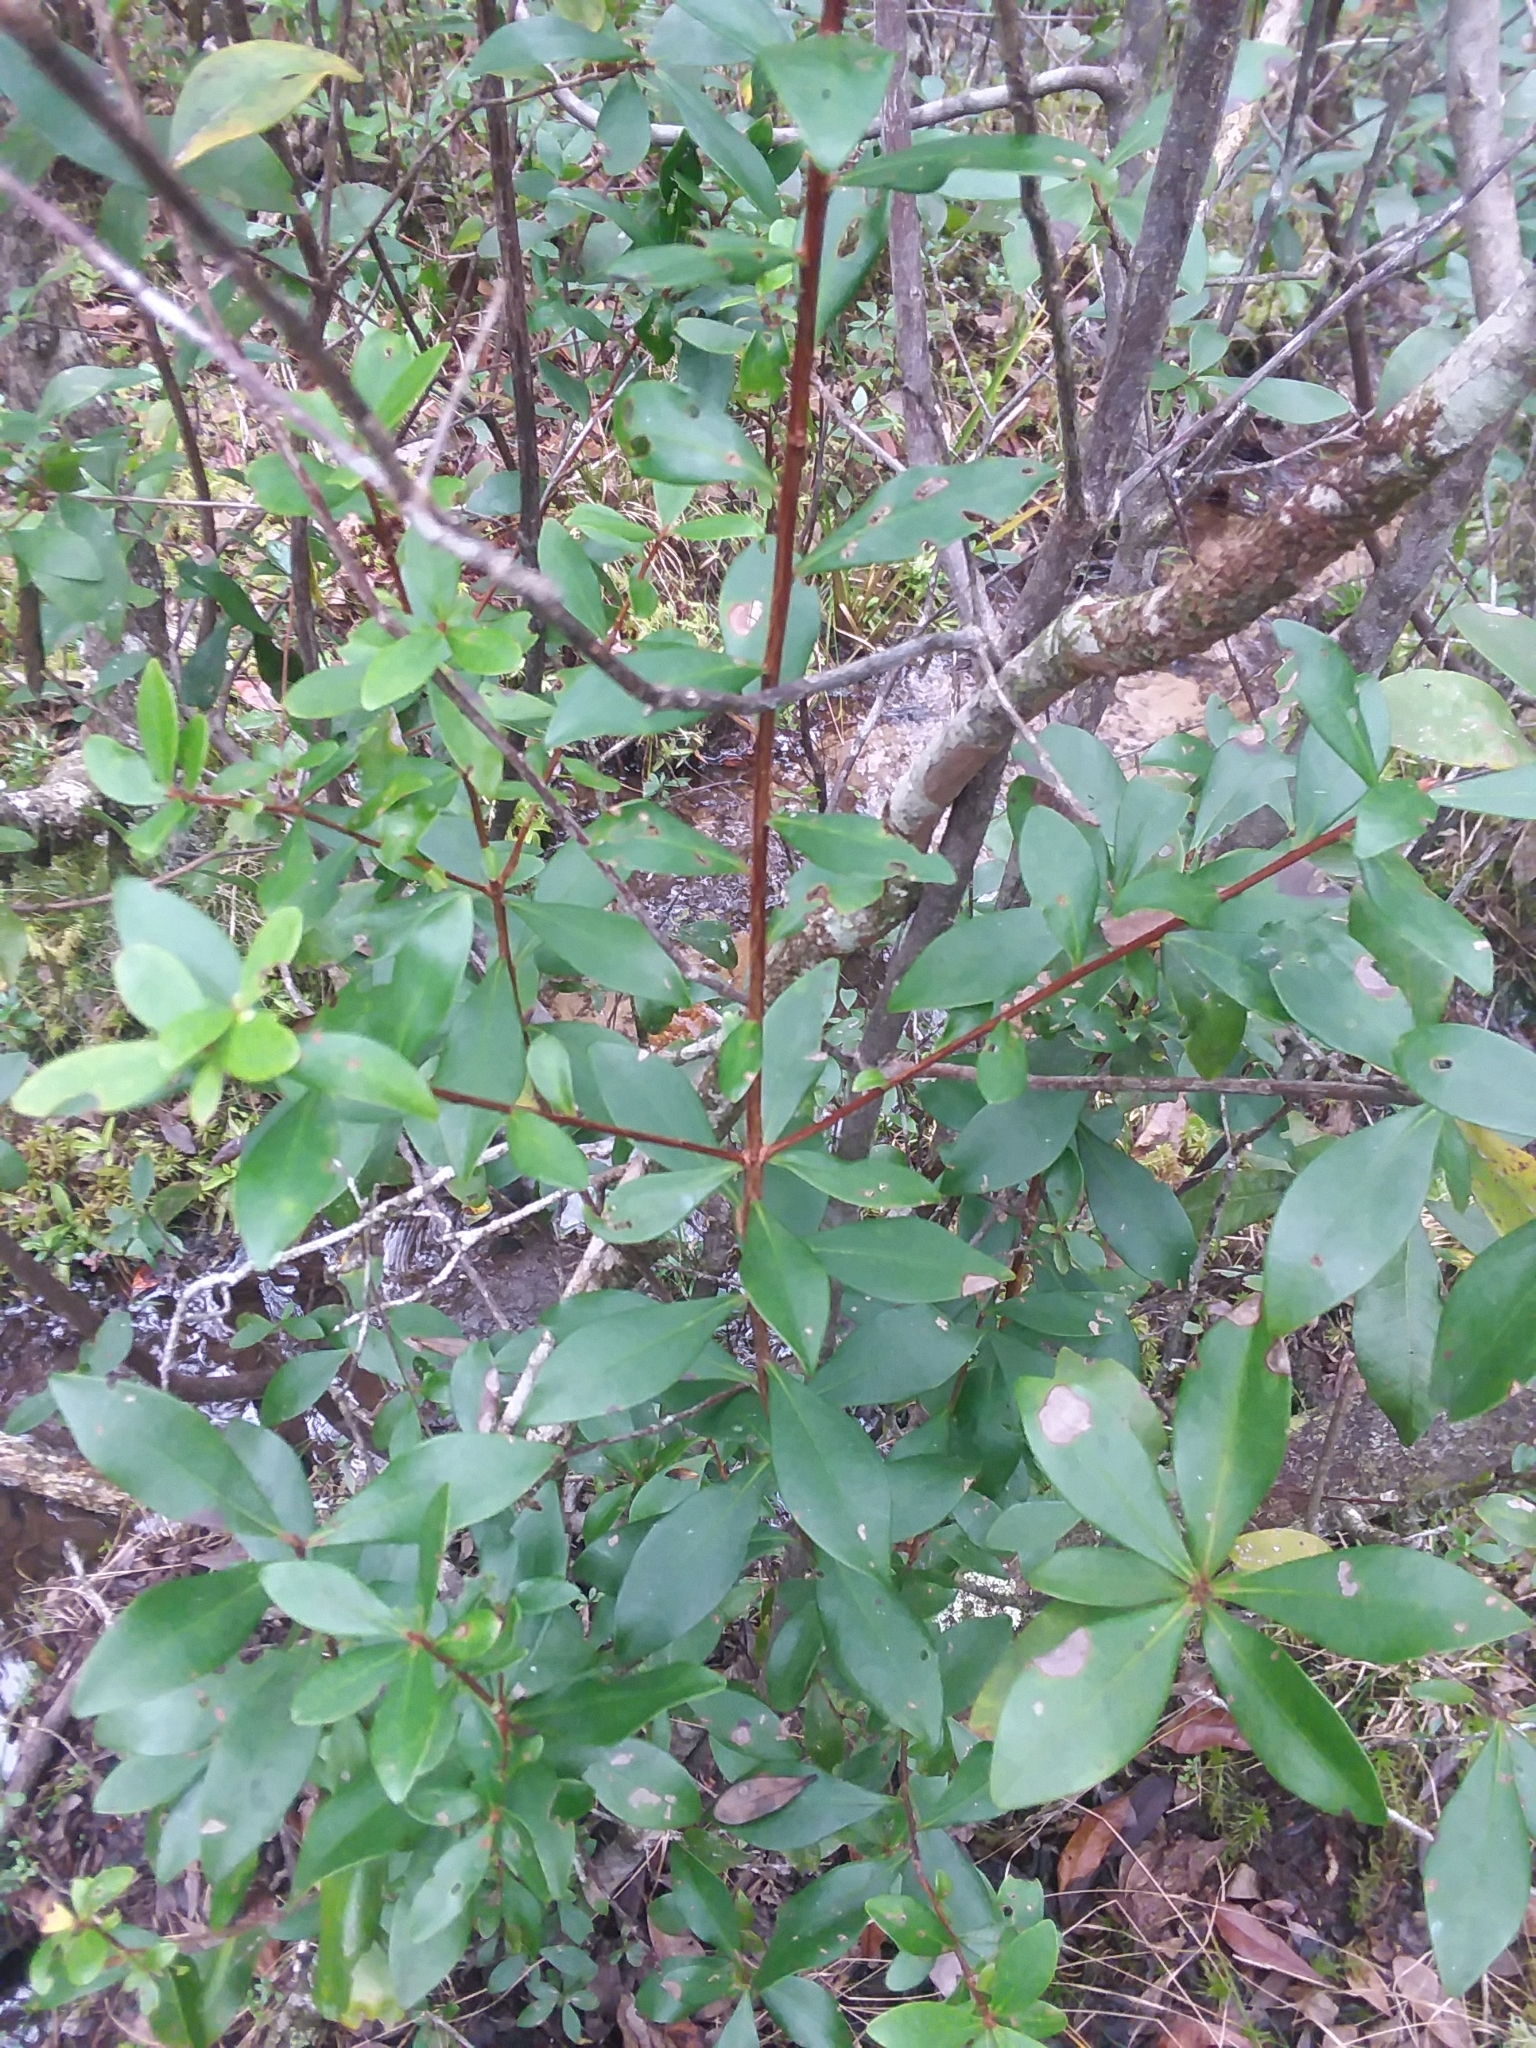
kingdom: Plantae
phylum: Tracheophyta
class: Magnoliopsida
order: Ericales
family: Cyrillaceae
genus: Cliftonia
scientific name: Cliftonia monophylla
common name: Titi
